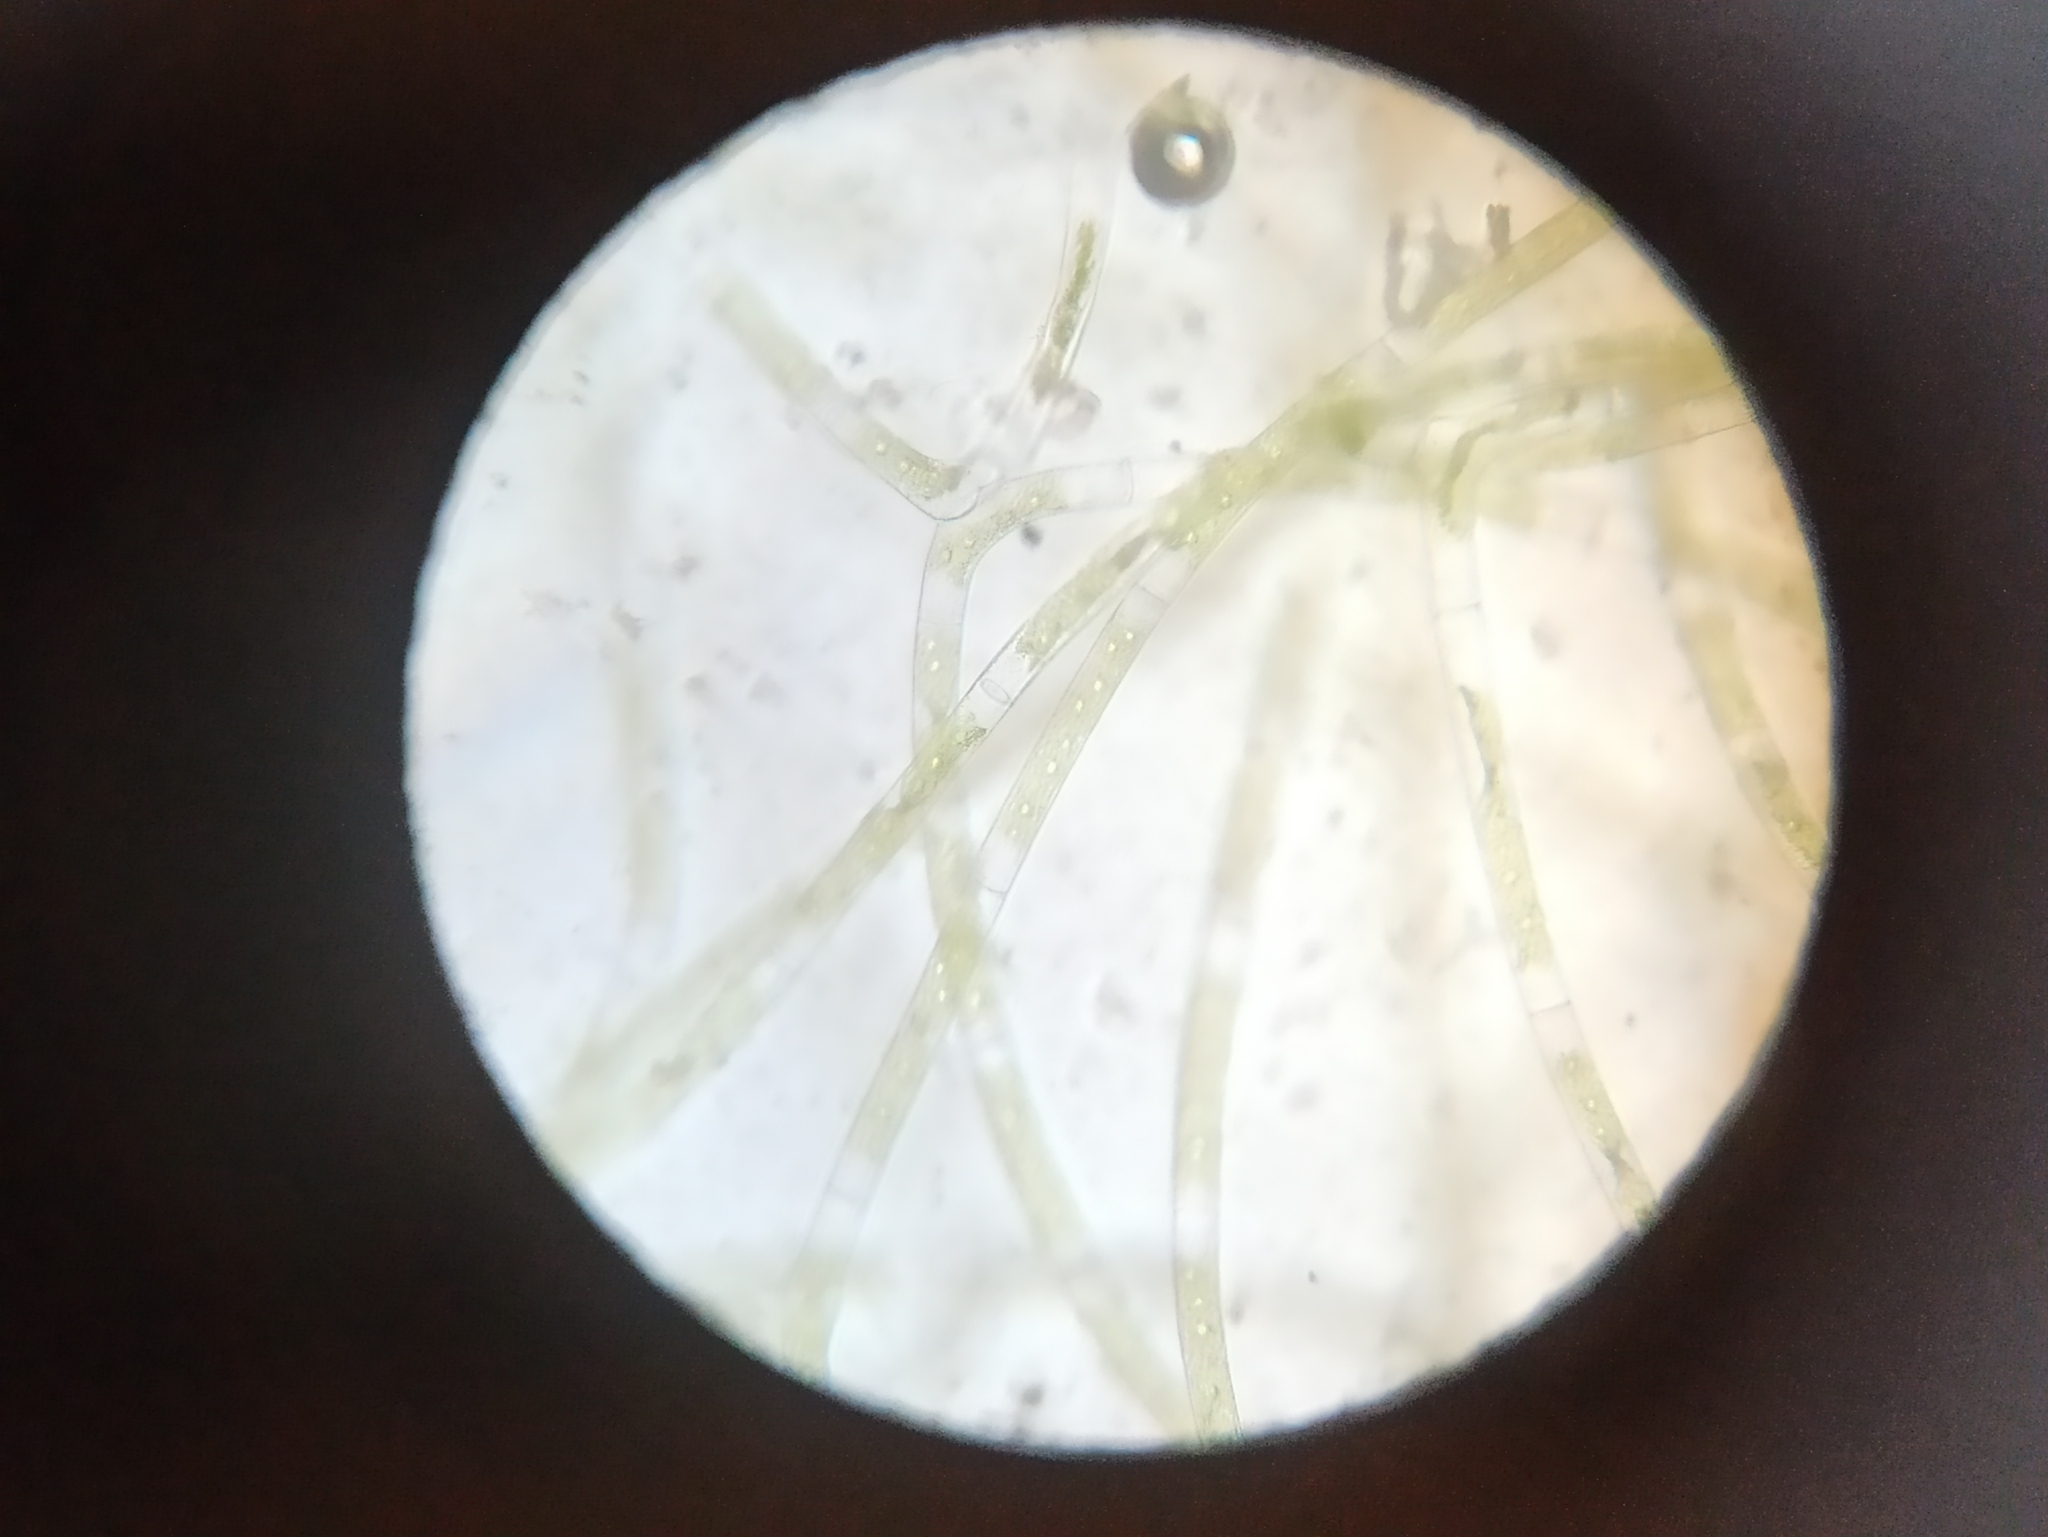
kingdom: Plantae
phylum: Charophyta
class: Zygnematophyceae
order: Zygnematales
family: Zygnemataceae
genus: Mougeotia
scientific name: Mougeotia
